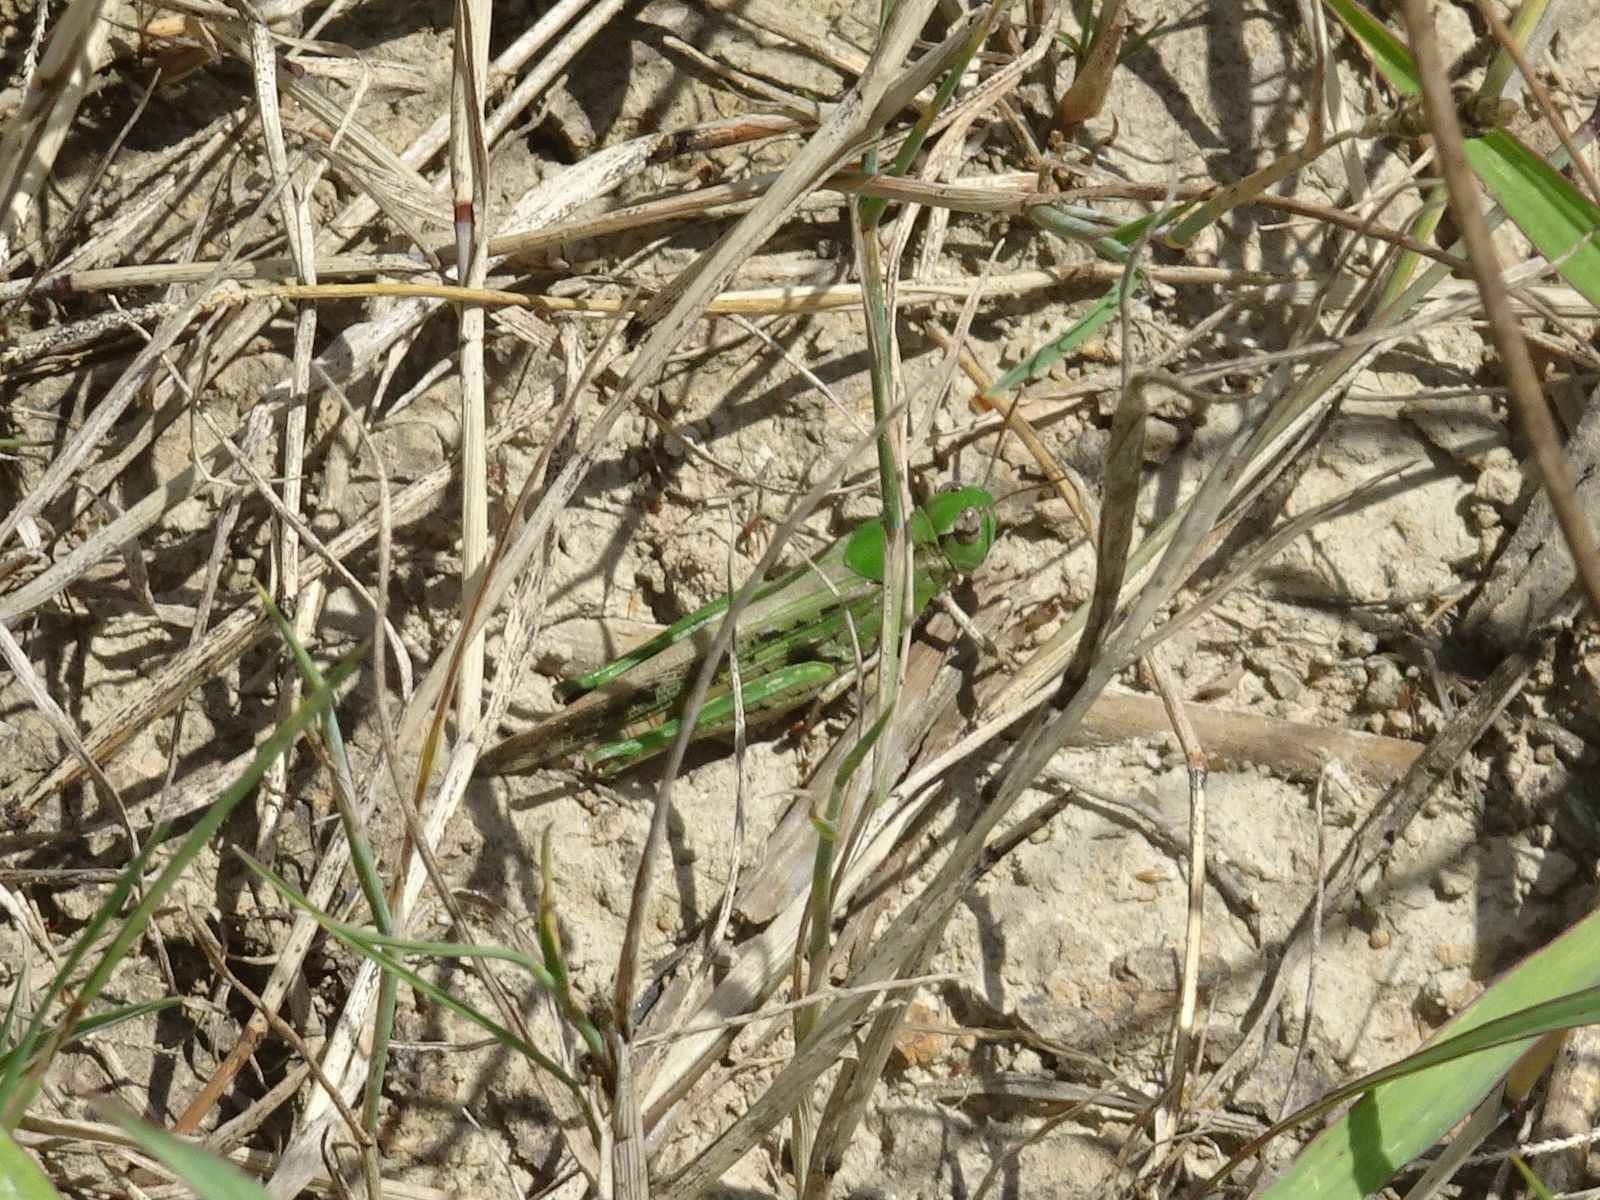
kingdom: Animalia
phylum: Arthropoda
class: Insecta
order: Orthoptera
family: Acrididae
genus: Aiolopus
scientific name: Aiolopus thalassinus
